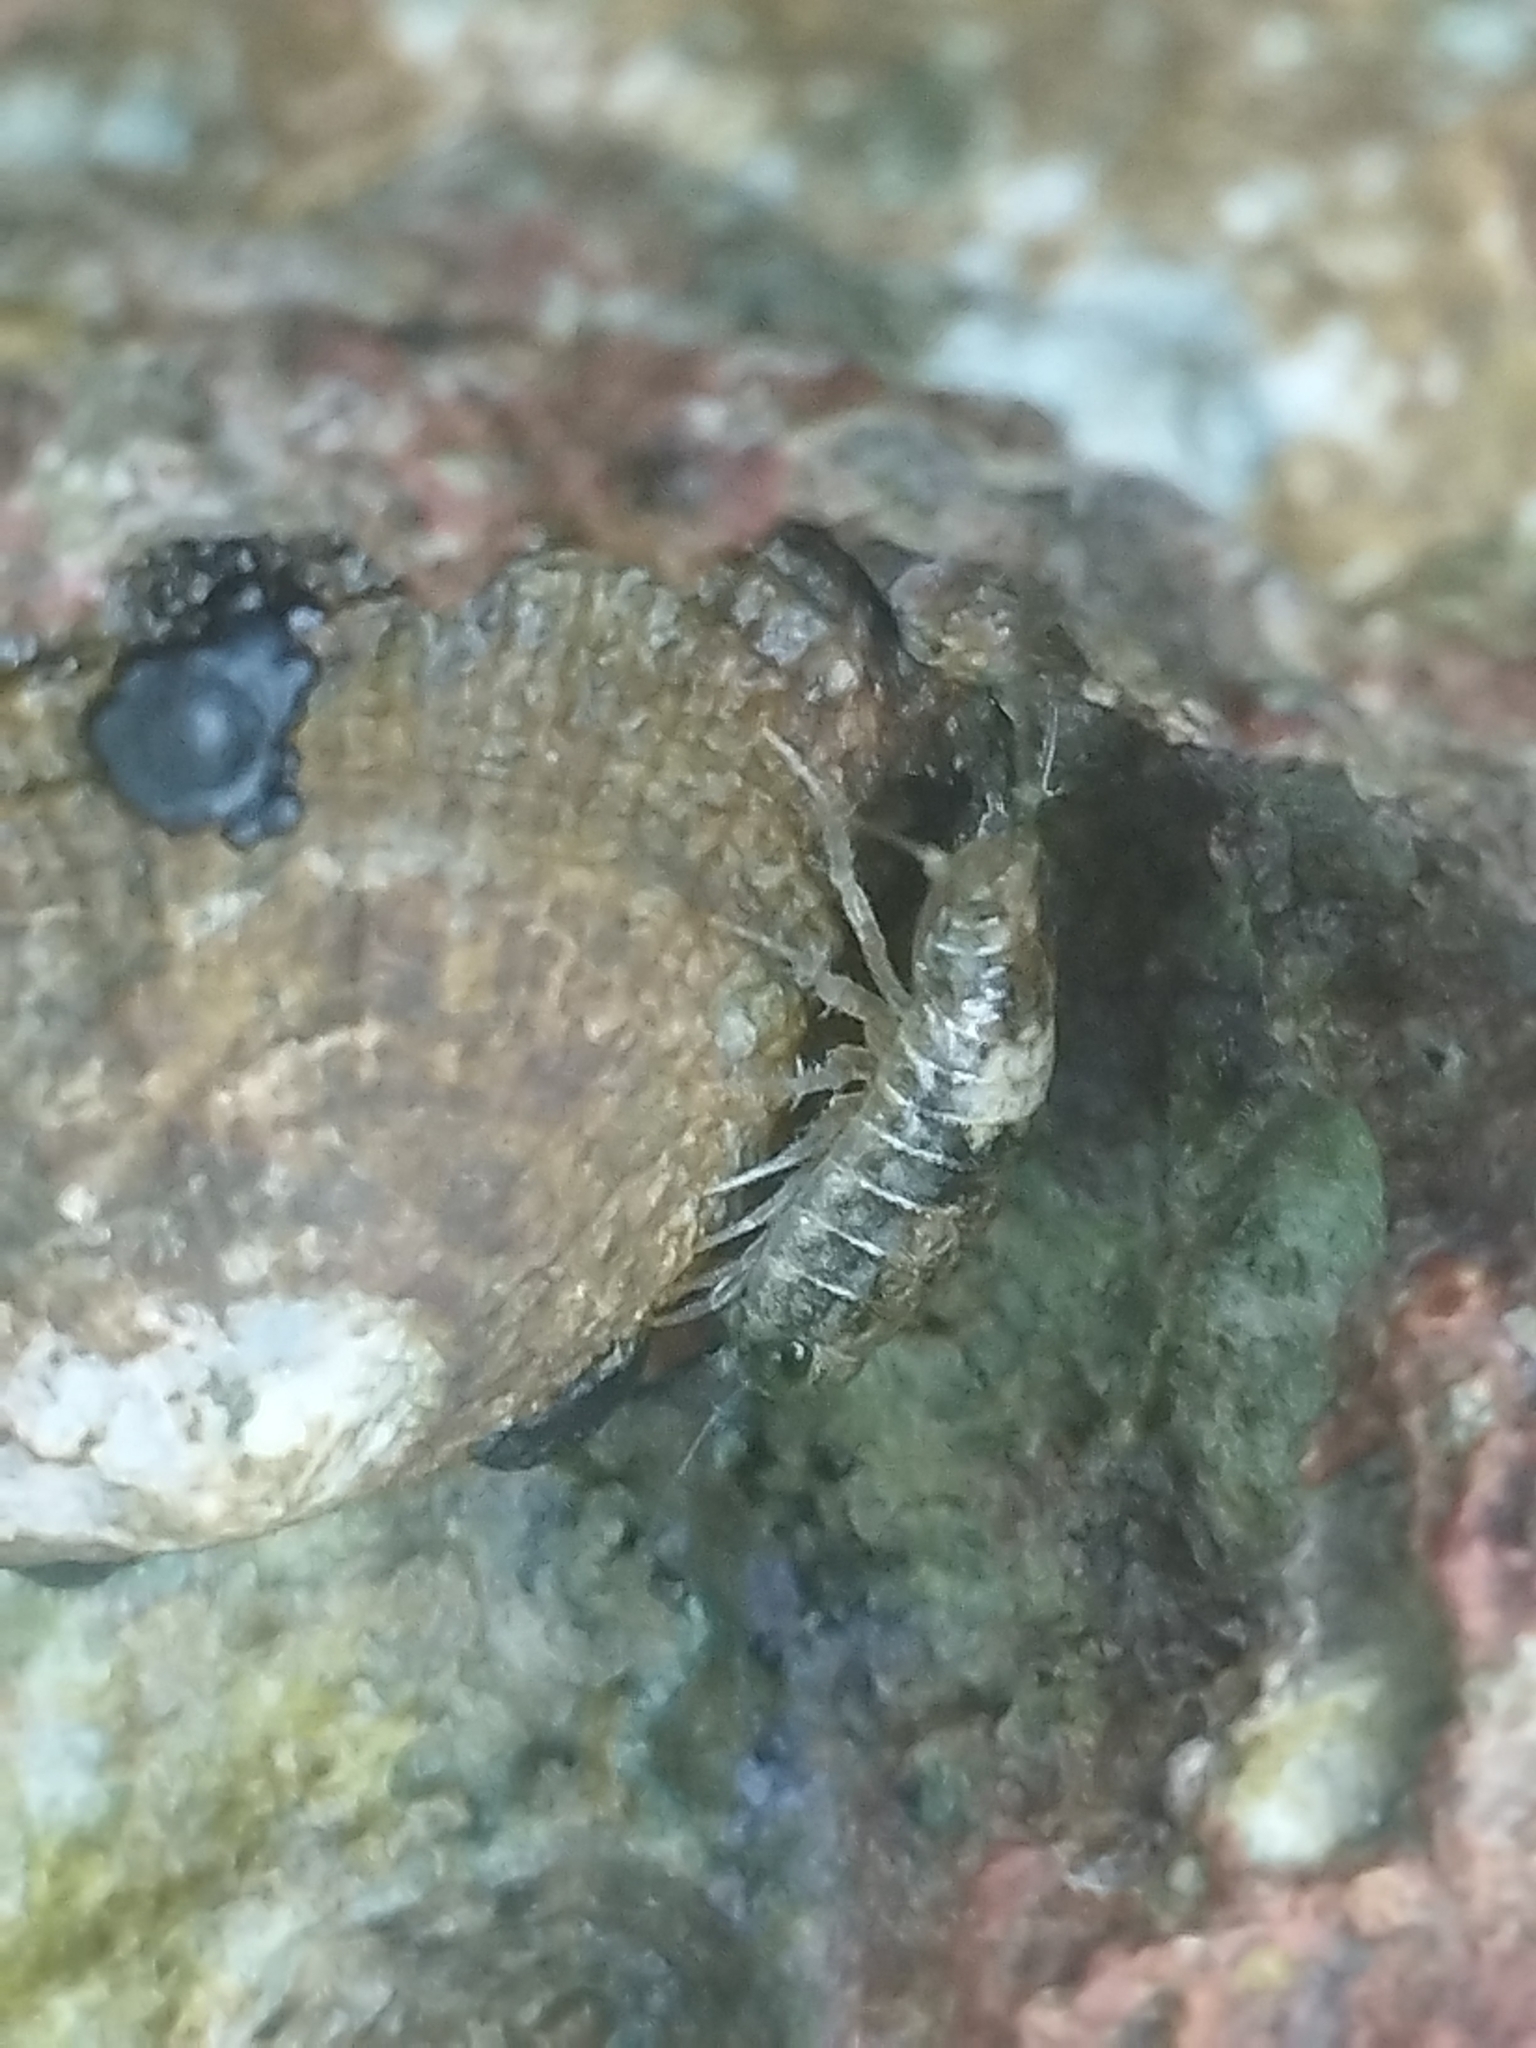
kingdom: Animalia
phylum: Arthropoda
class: Malacostraca
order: Isopoda
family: Ligiidae
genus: Ligia
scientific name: Ligia italica
